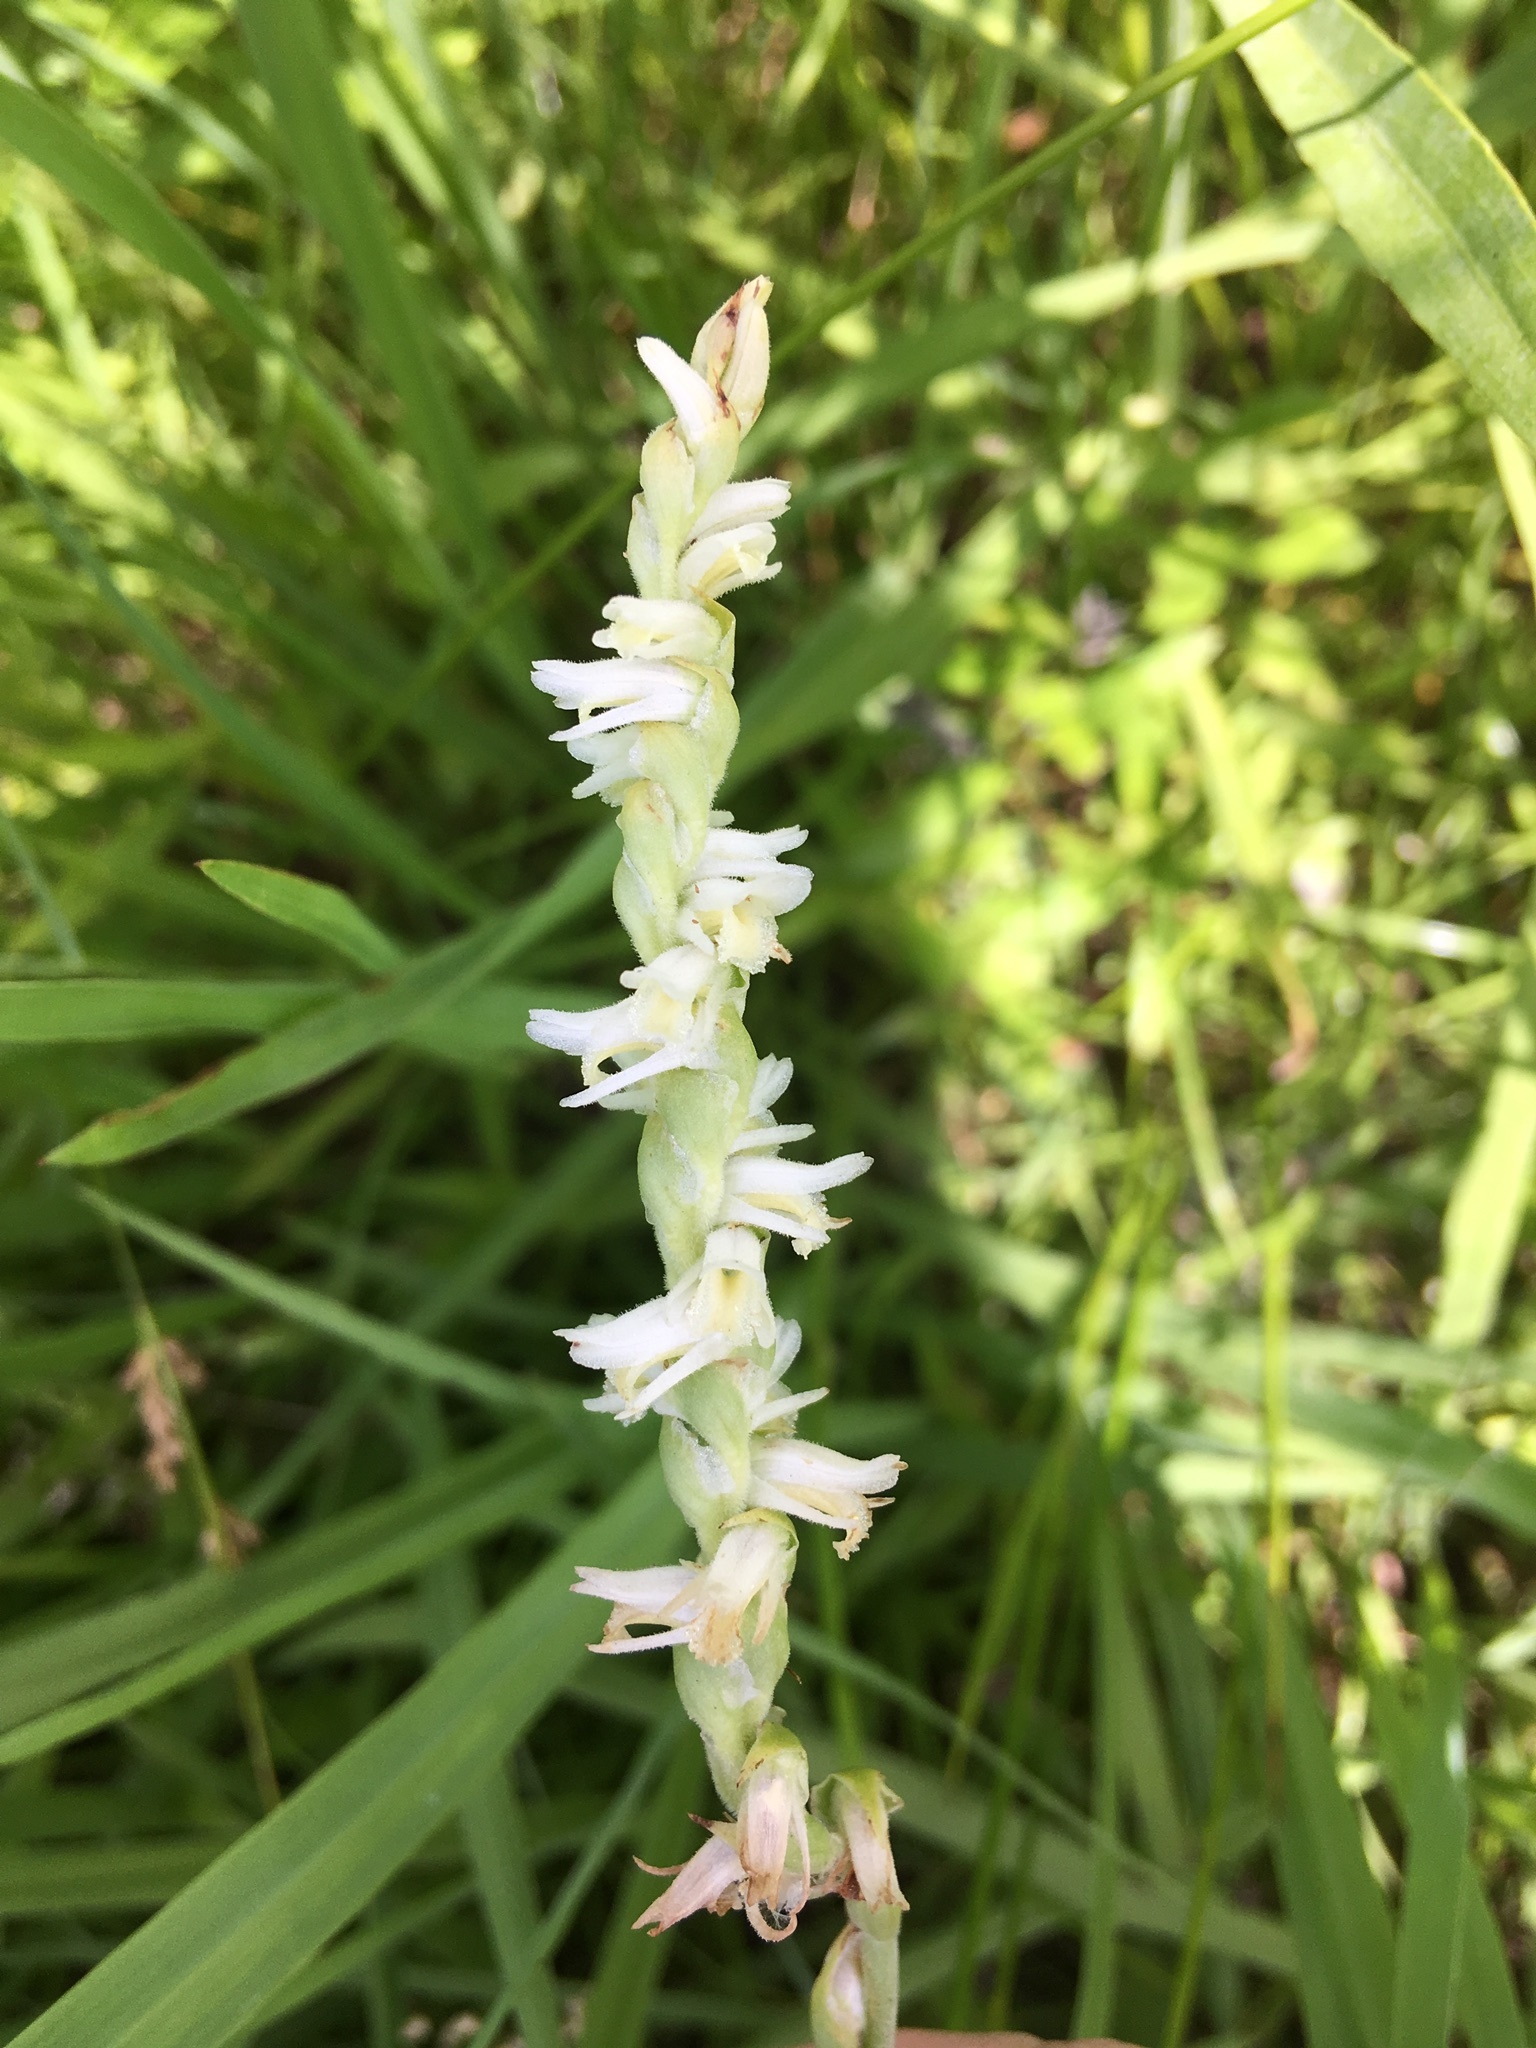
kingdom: Plantae
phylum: Tracheophyta
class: Liliopsida
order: Asparagales
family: Orchidaceae
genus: Spiranthes
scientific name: Spiranthes vernalis
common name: Spring ladies'-tresses
